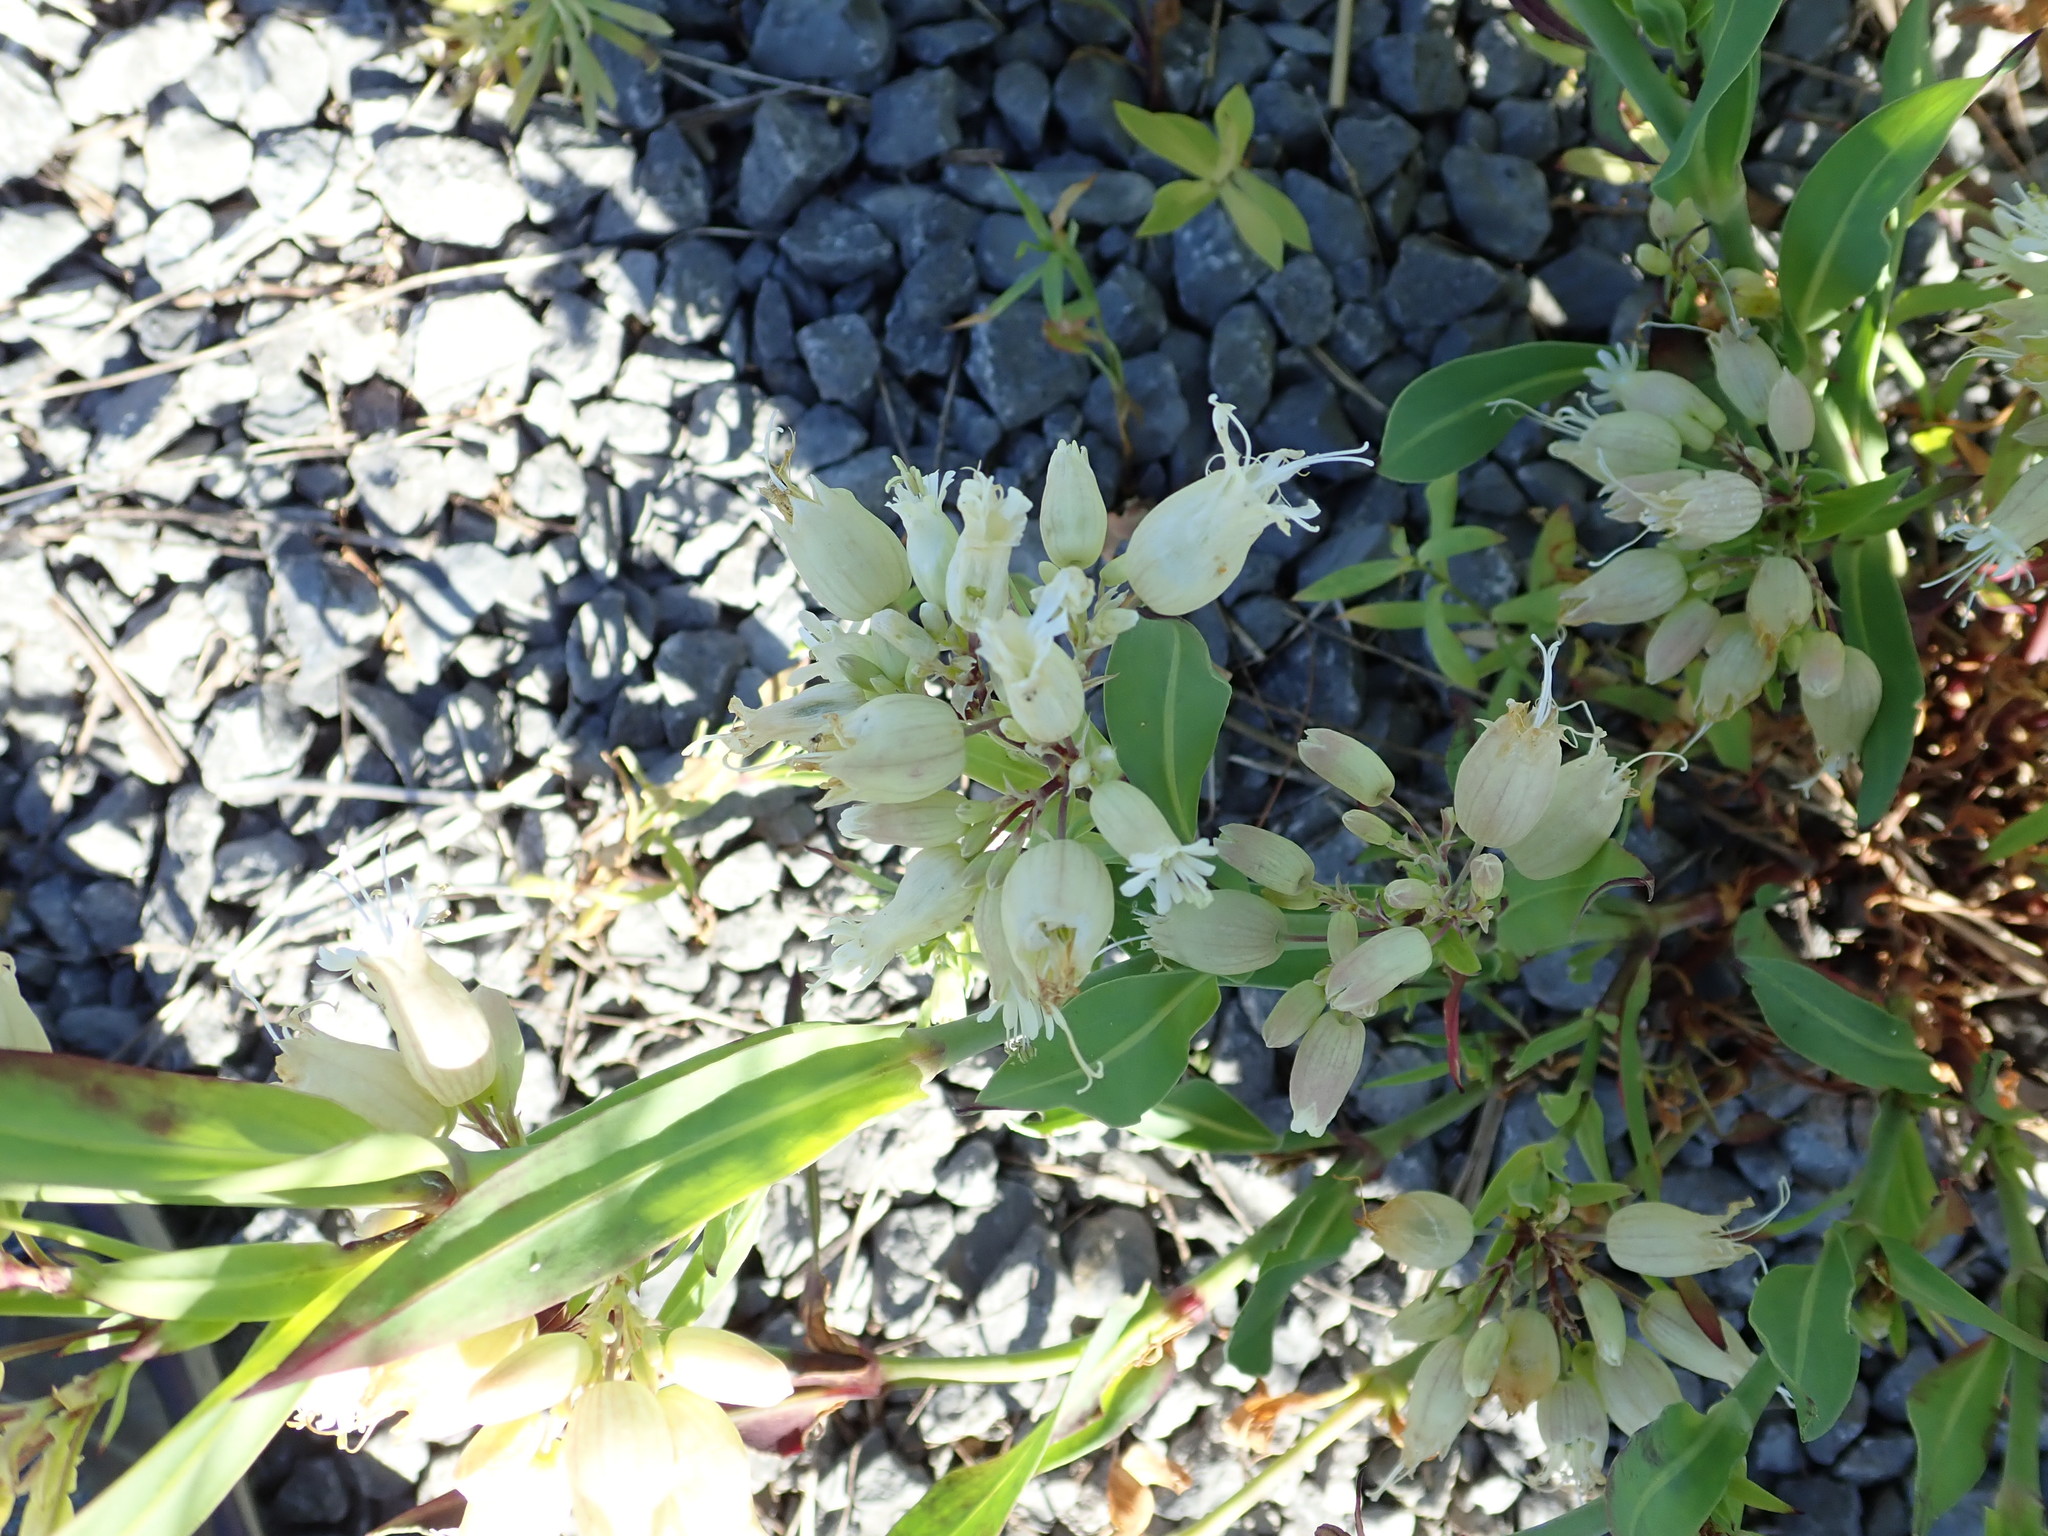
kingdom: Plantae
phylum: Tracheophyta
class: Magnoliopsida
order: Caryophyllales
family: Caryophyllaceae
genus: Silene
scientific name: Silene vulgaris
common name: Bladder campion
